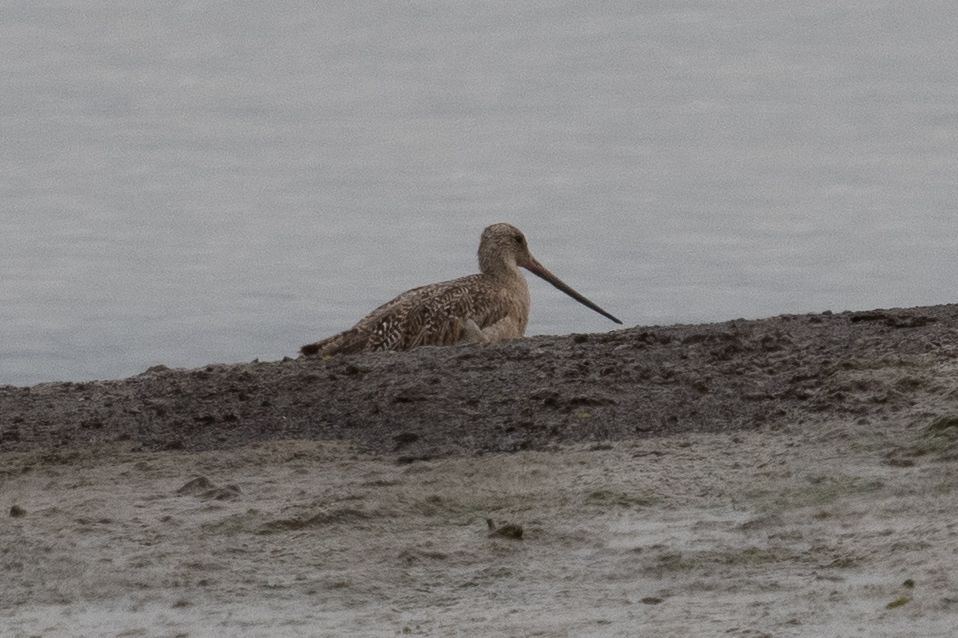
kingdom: Animalia
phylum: Chordata
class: Aves
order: Charadriiformes
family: Scolopacidae
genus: Limosa
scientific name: Limosa fedoa
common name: Marbled godwit
